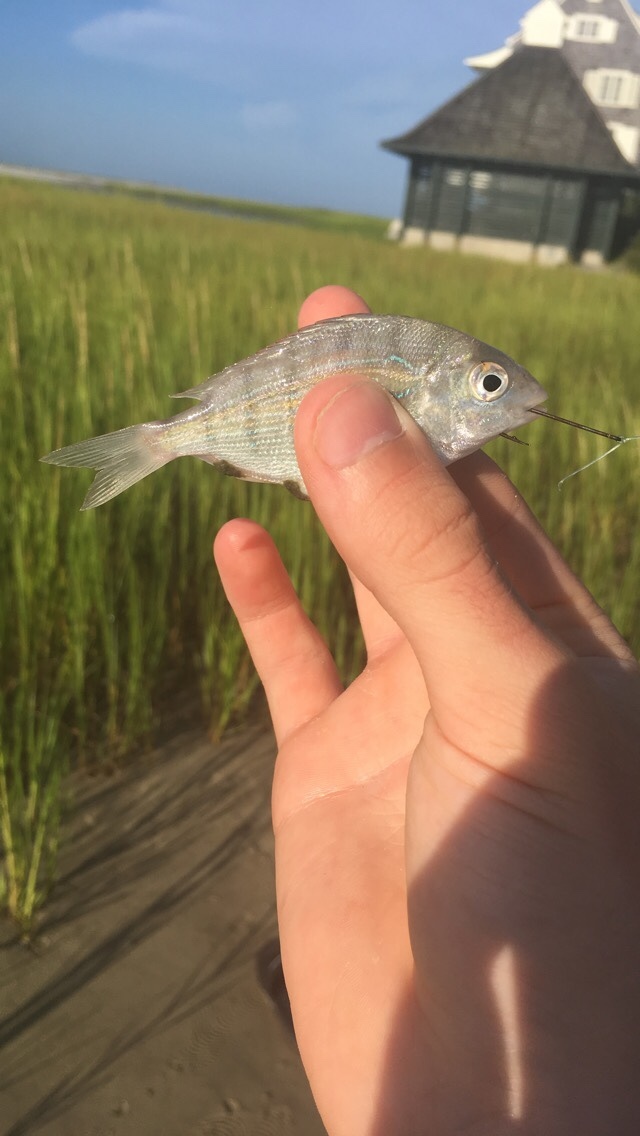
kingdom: Animalia
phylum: Chordata
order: Perciformes
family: Sparidae
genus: Lagodon
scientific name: Lagodon rhomboides
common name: Pinfish
